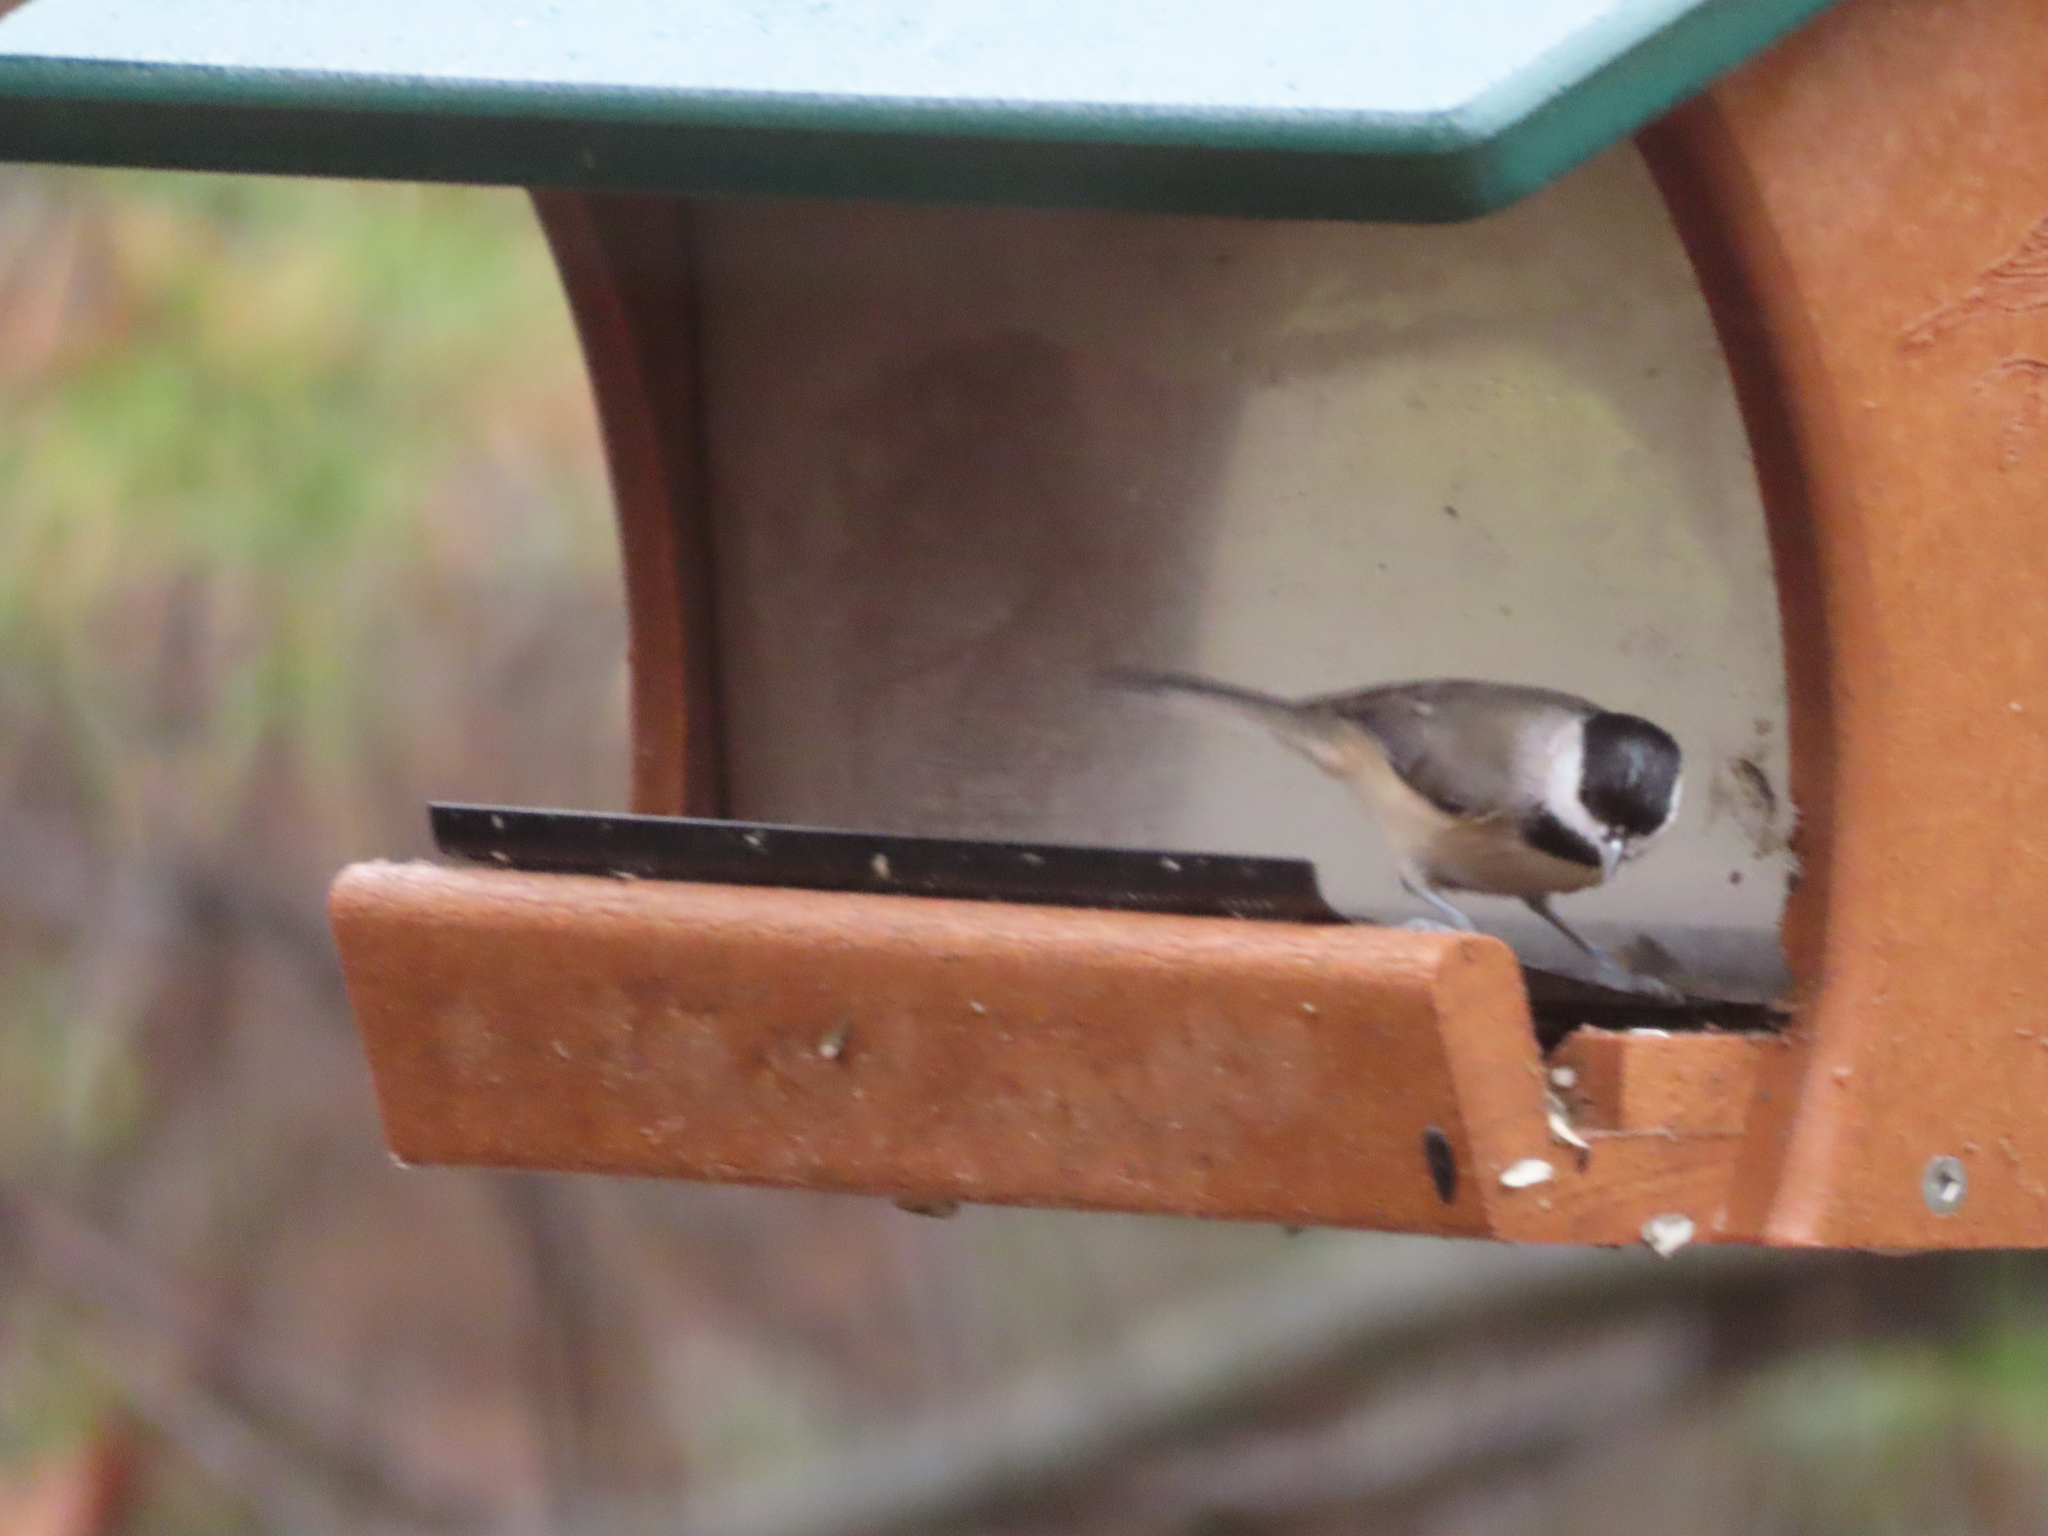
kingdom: Animalia
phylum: Chordata
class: Aves
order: Passeriformes
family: Paridae
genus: Poecile
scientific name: Poecile carolinensis
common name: Carolina chickadee
